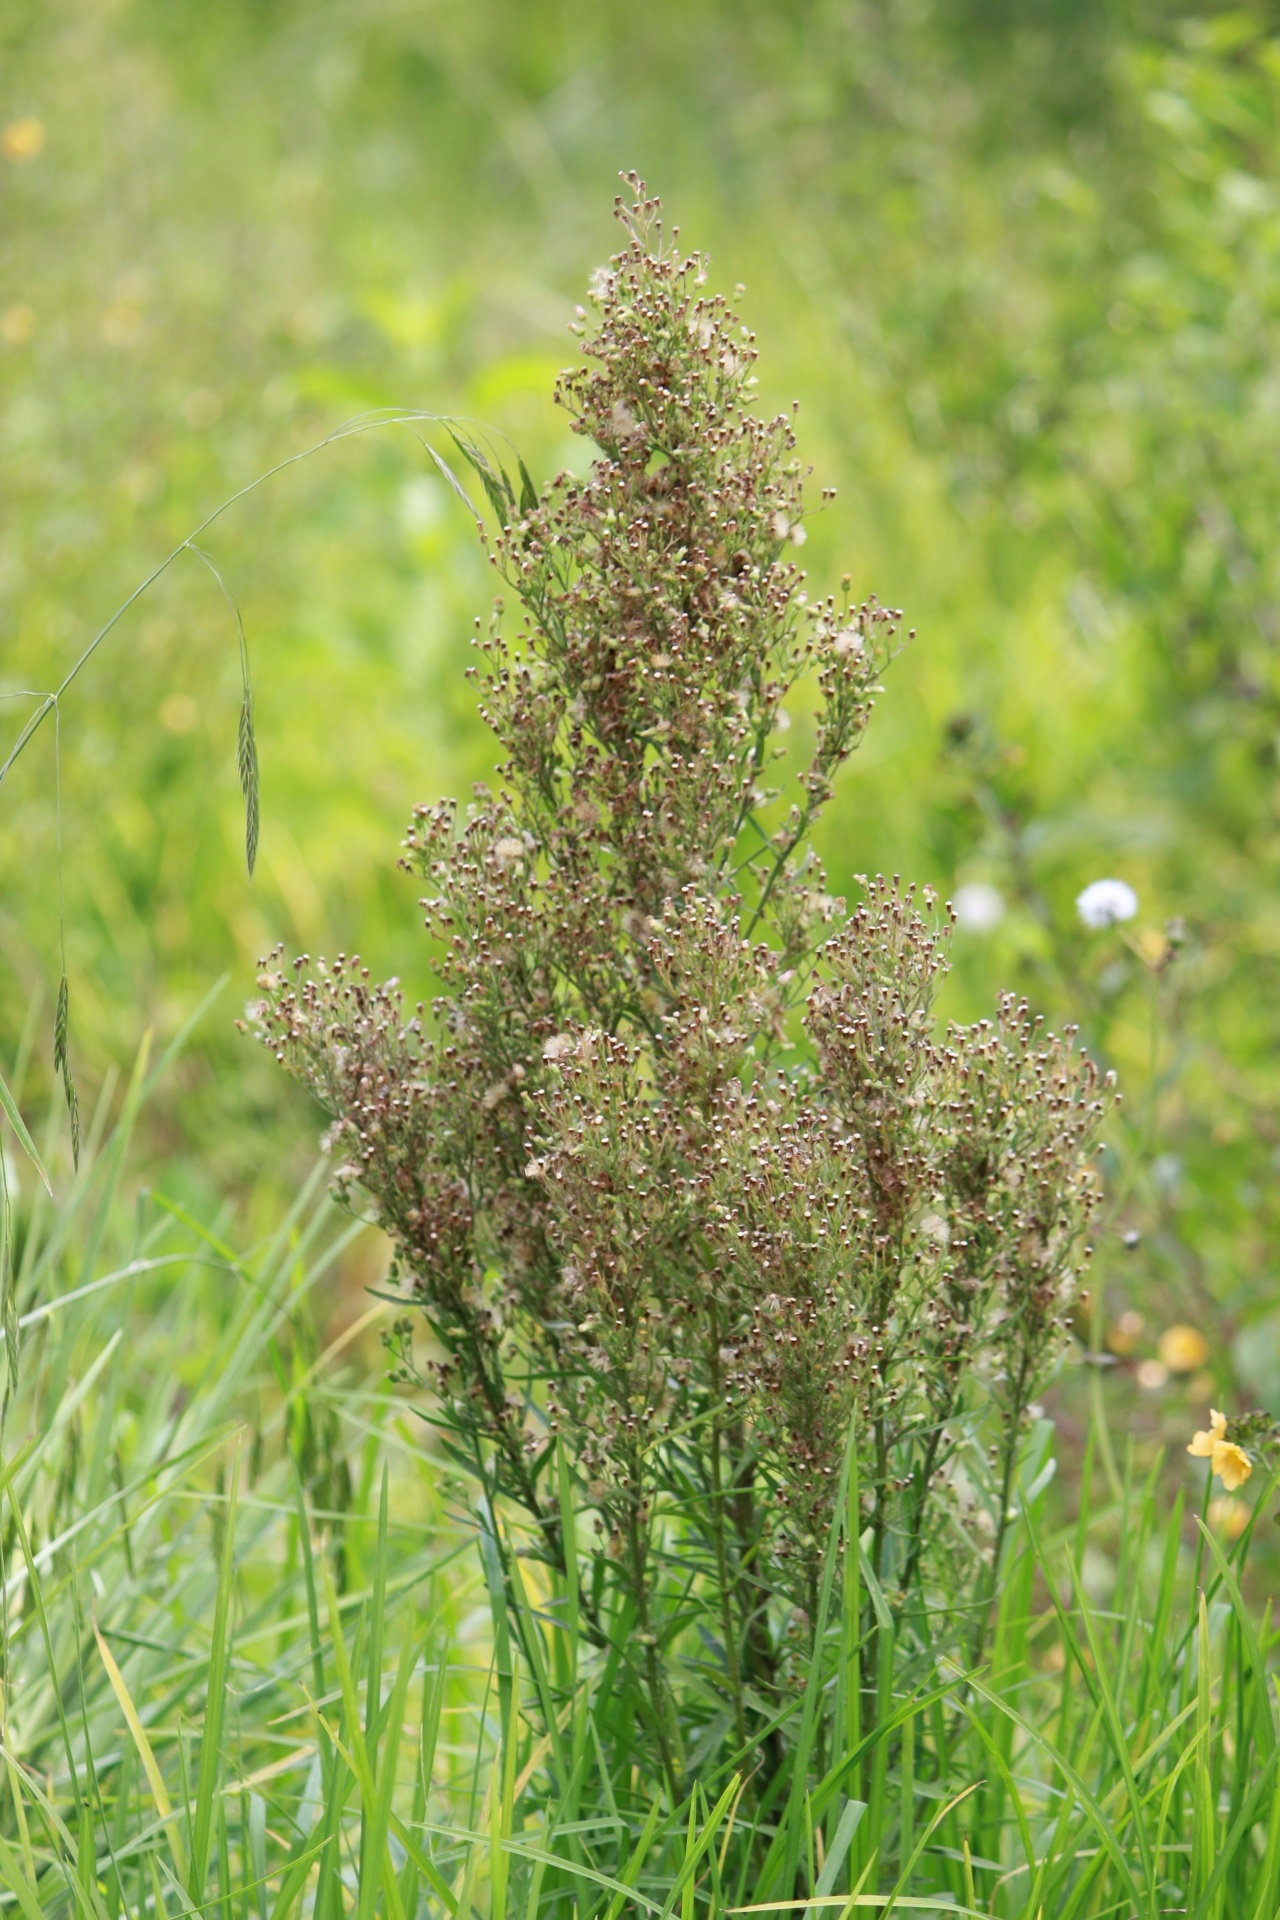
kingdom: Plantae
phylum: Tracheophyta
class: Magnoliopsida
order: Asterales
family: Asteraceae
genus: Erigeron
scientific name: Erigeron canadensis
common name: Canadian fleabane
